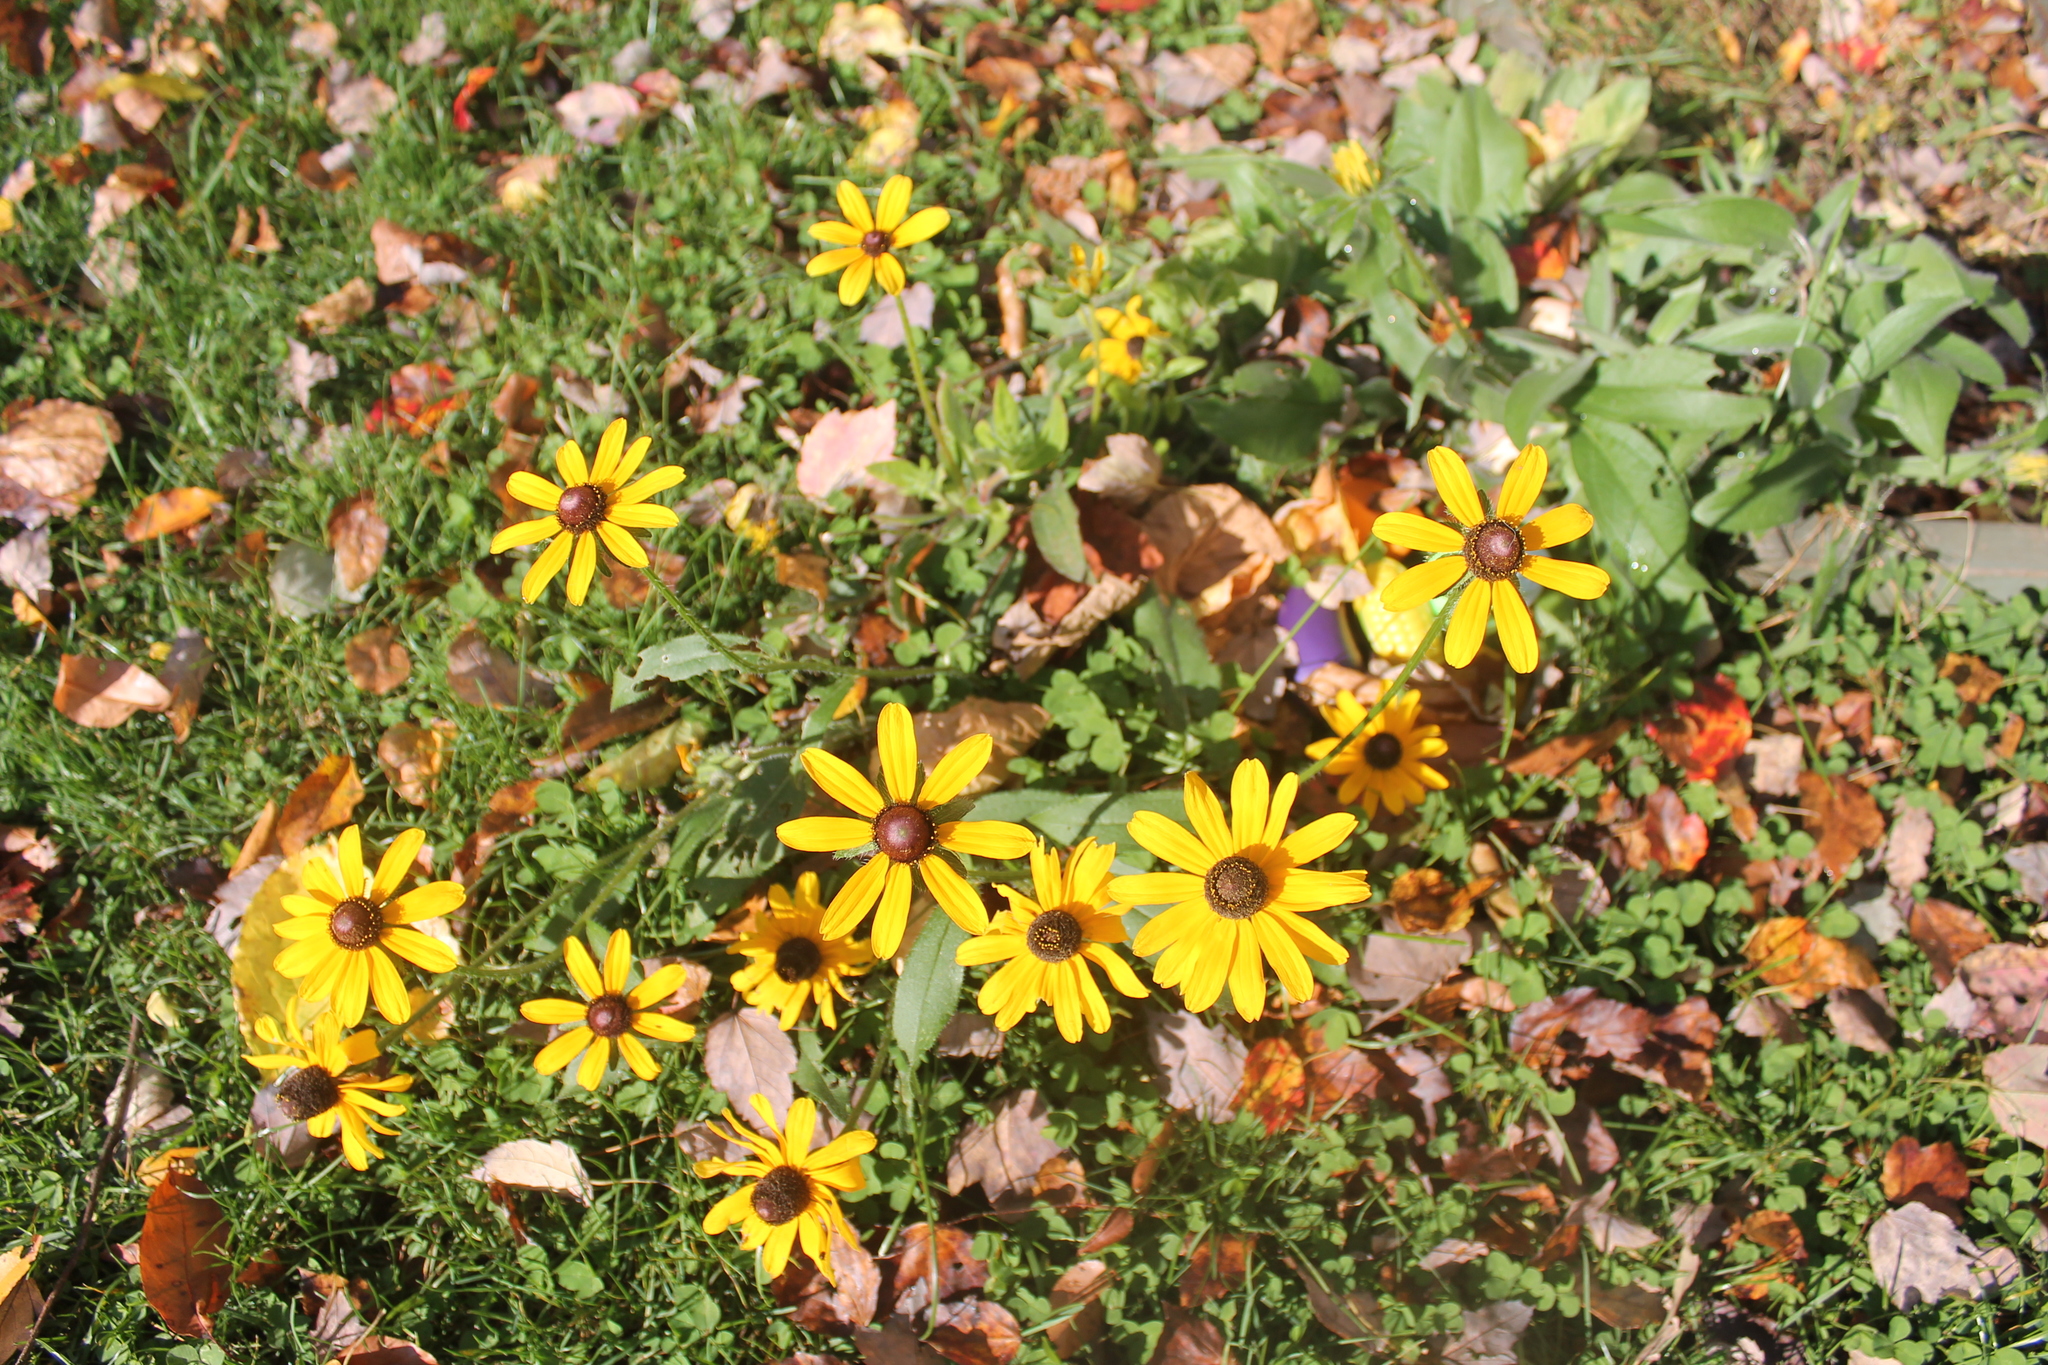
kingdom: Plantae
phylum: Tracheophyta
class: Magnoliopsida
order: Asterales
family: Asteraceae
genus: Rudbeckia
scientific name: Rudbeckia hirta
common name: Black-eyed-susan
